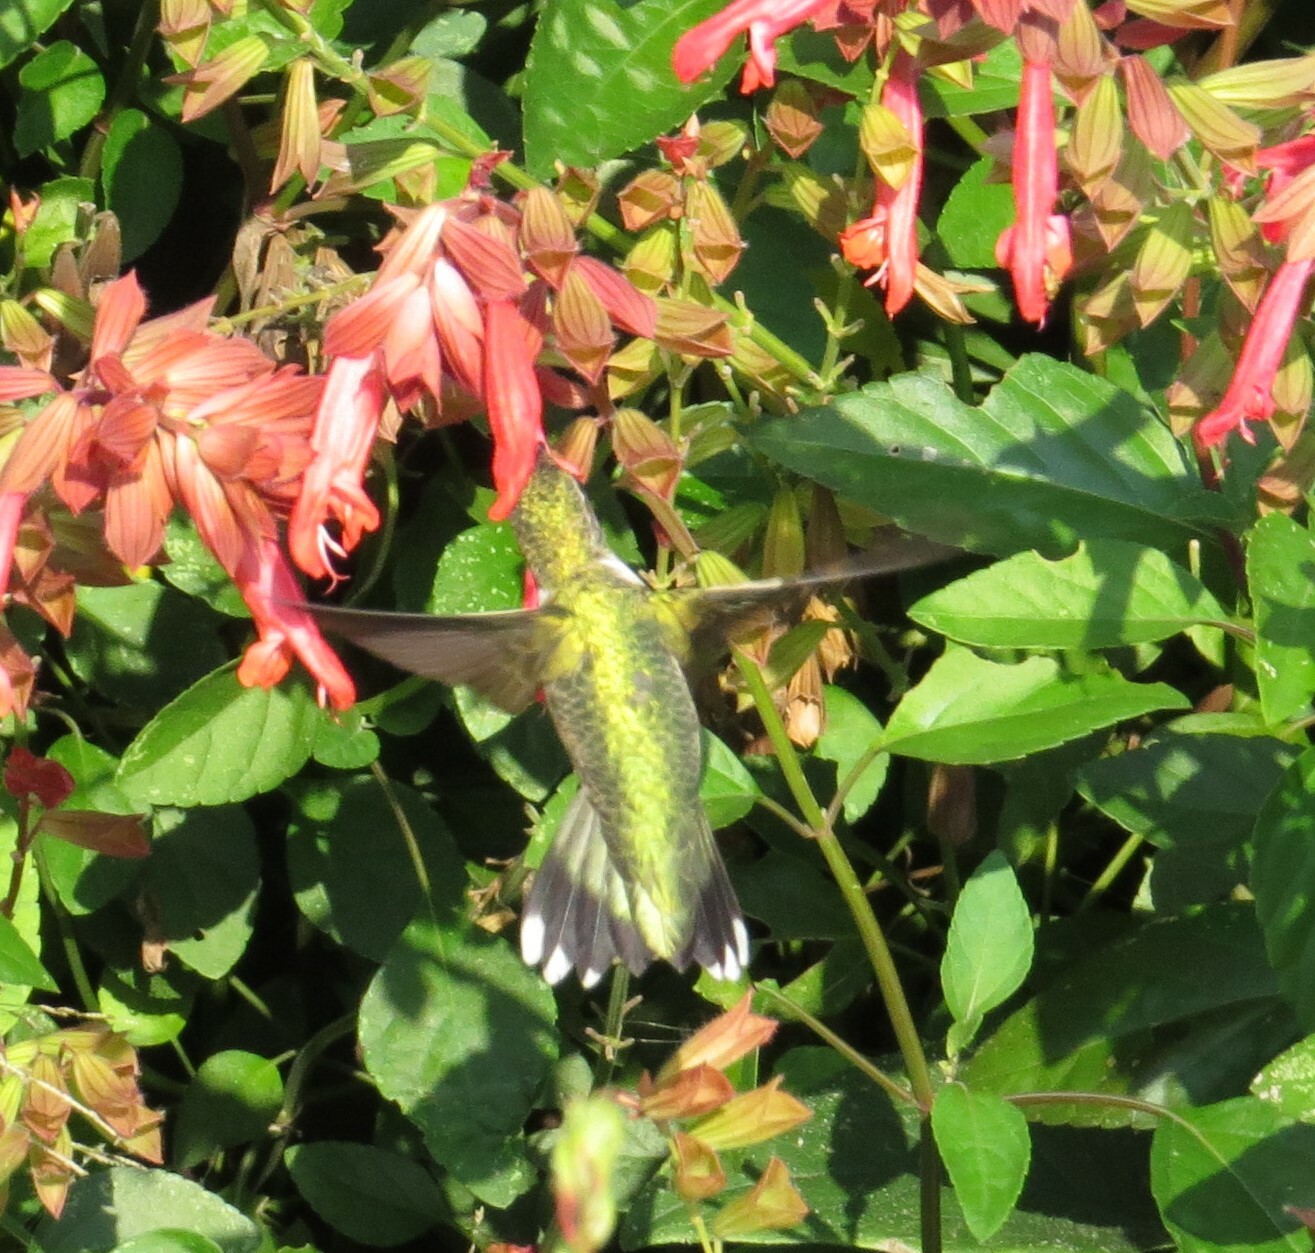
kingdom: Animalia
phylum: Chordata
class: Aves
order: Apodiformes
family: Trochilidae
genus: Archilochus
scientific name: Archilochus colubris
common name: Ruby-throated hummingbird
